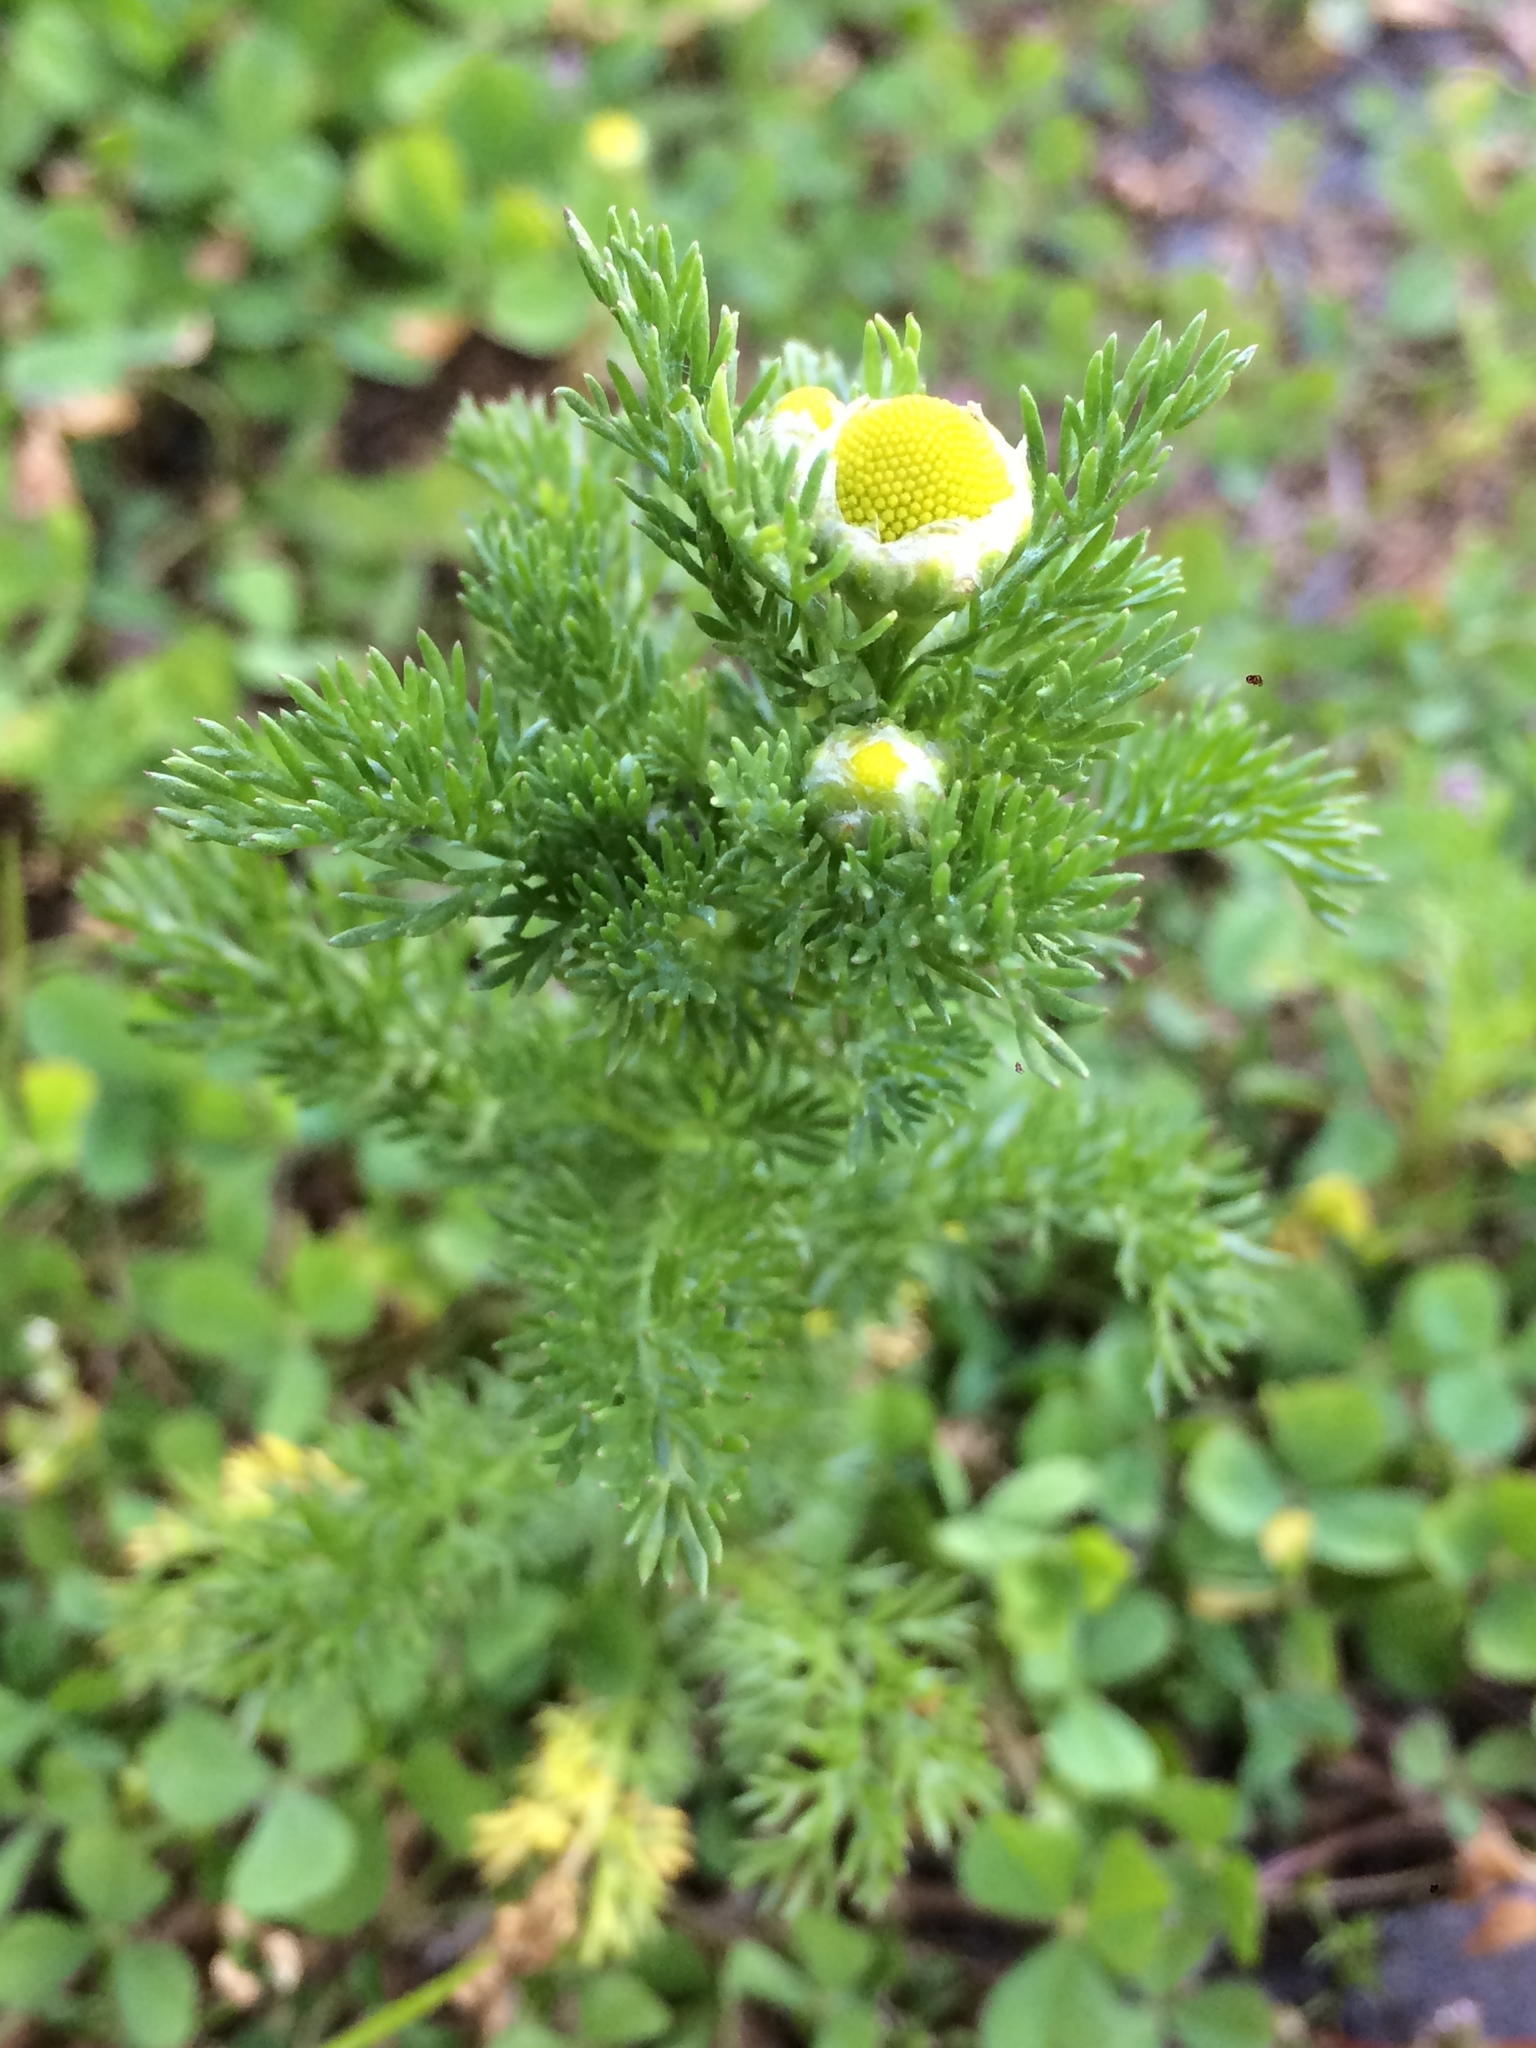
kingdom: Plantae
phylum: Tracheophyta
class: Magnoliopsida
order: Asterales
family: Asteraceae
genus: Matricaria
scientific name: Matricaria discoidea
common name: Disc mayweed
